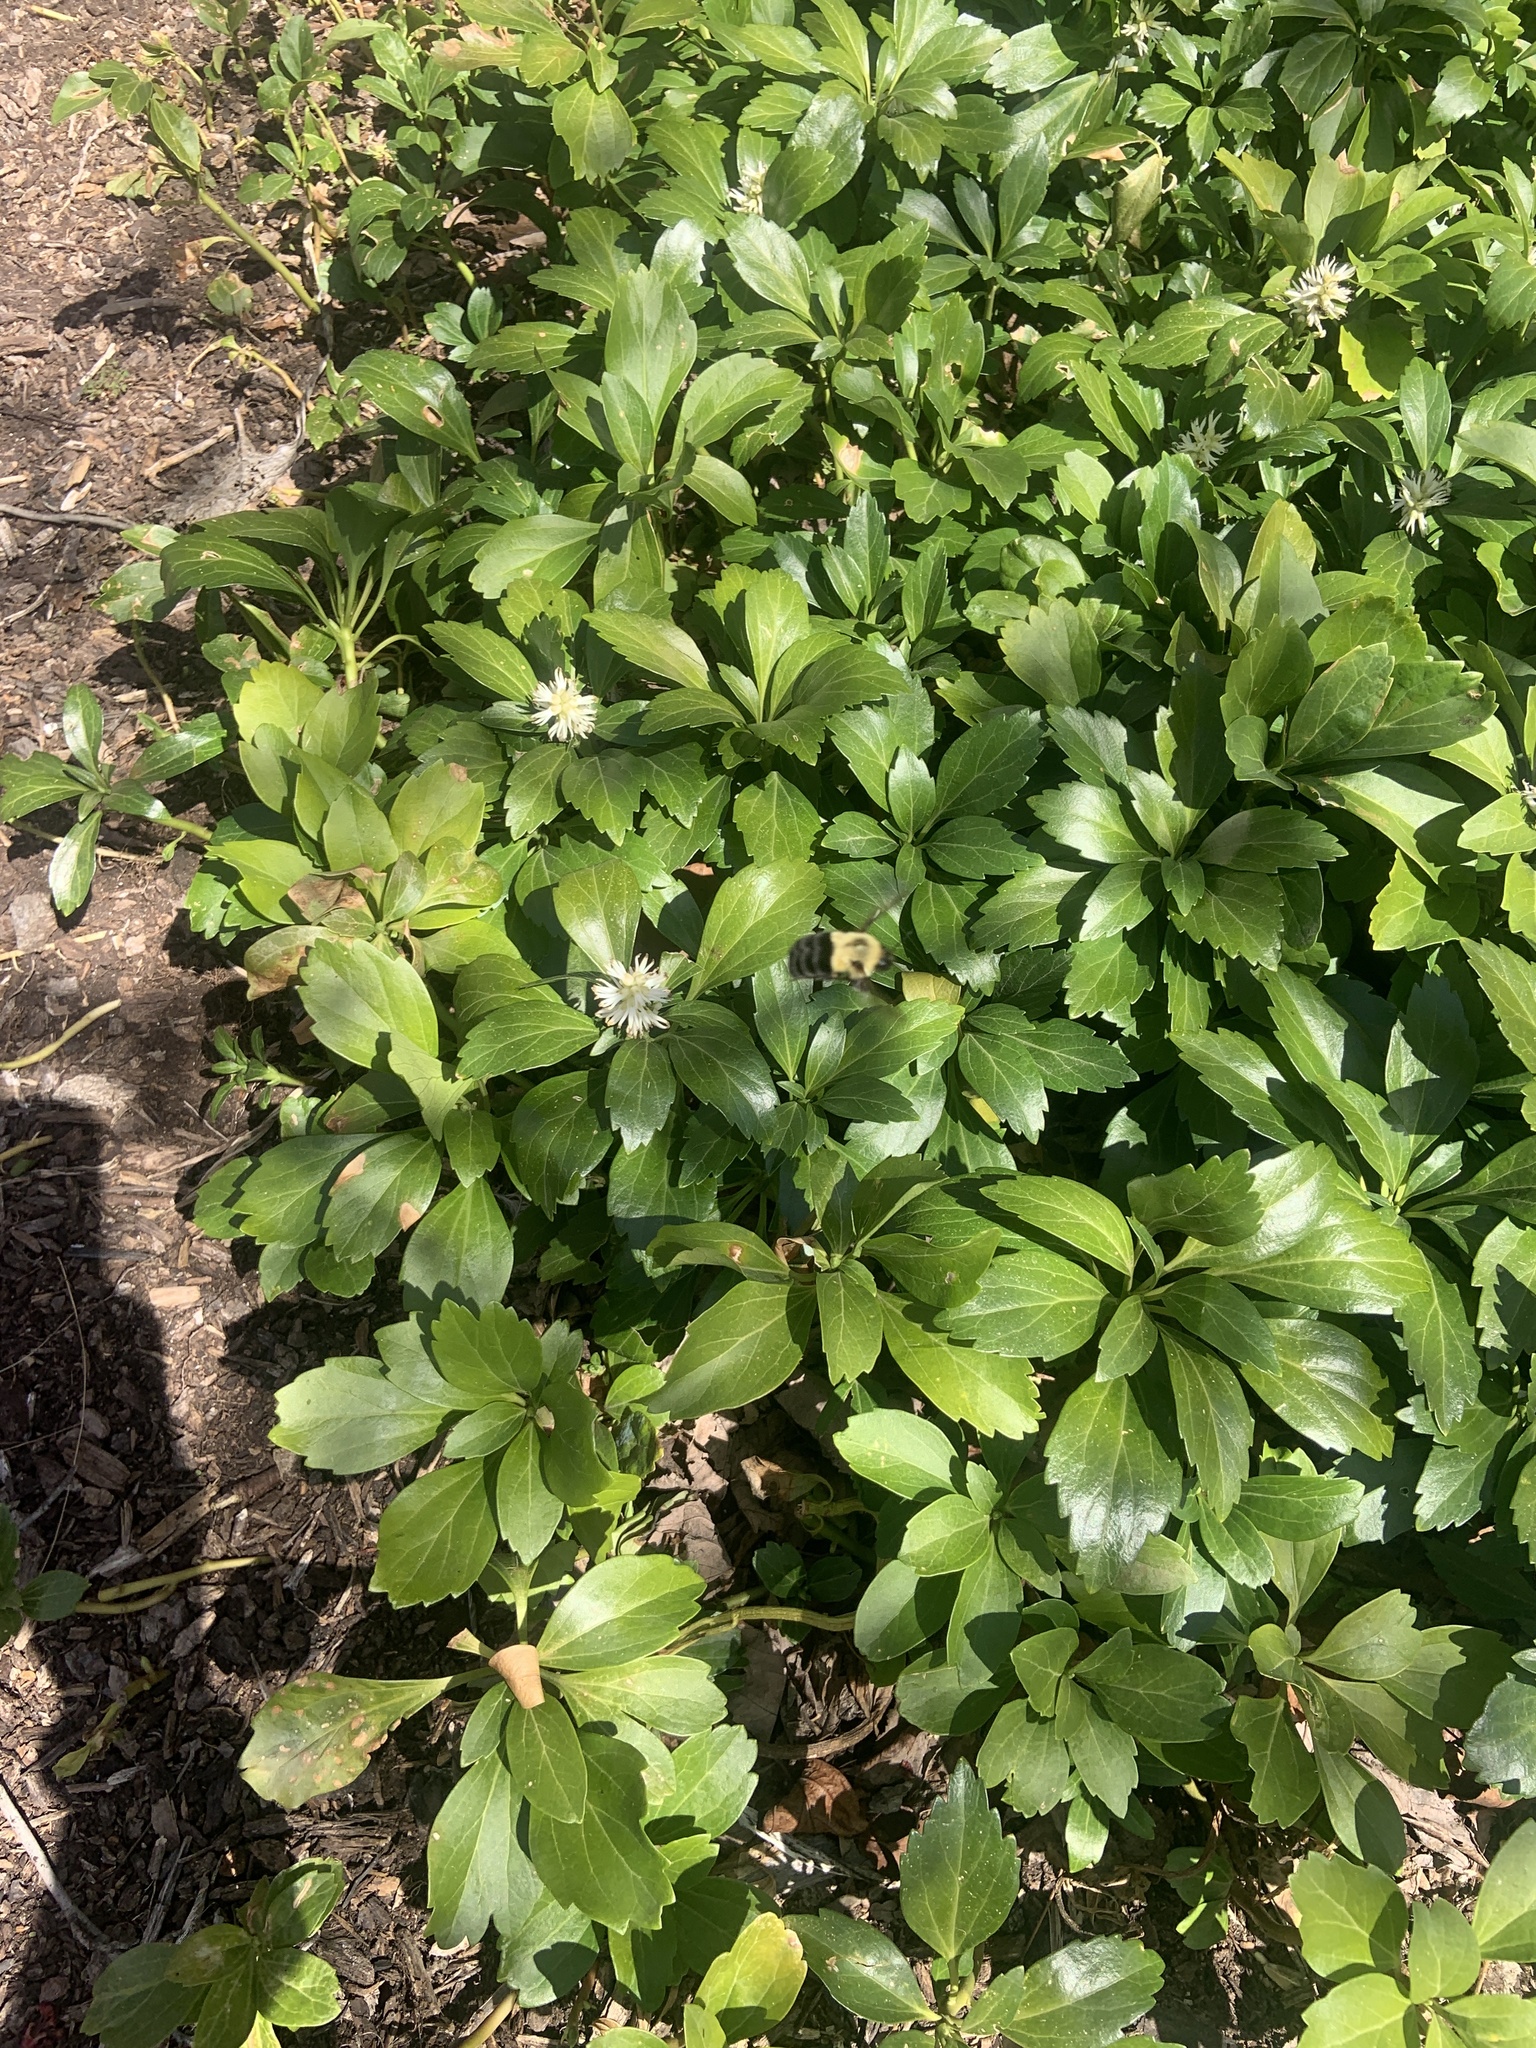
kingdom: Animalia
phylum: Arthropoda
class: Insecta
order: Hymenoptera
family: Apidae
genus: Bombus
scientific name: Bombus impatiens
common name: Common eastern bumble bee
